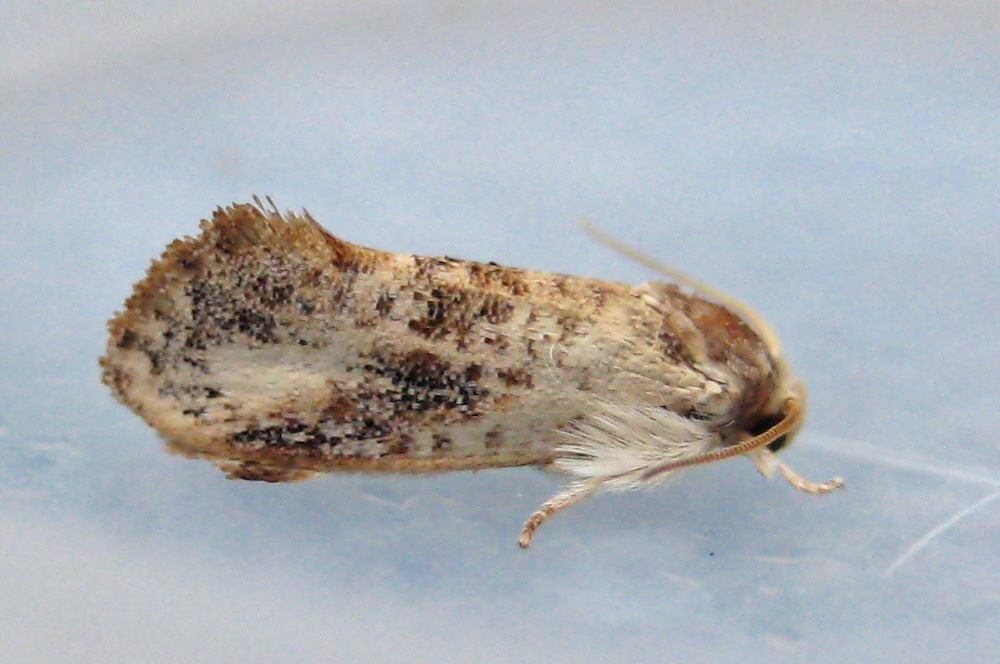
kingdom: Animalia
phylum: Arthropoda
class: Insecta
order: Lepidoptera
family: Tineidae
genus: Acrolophus
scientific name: Acrolophus mycetophagus
